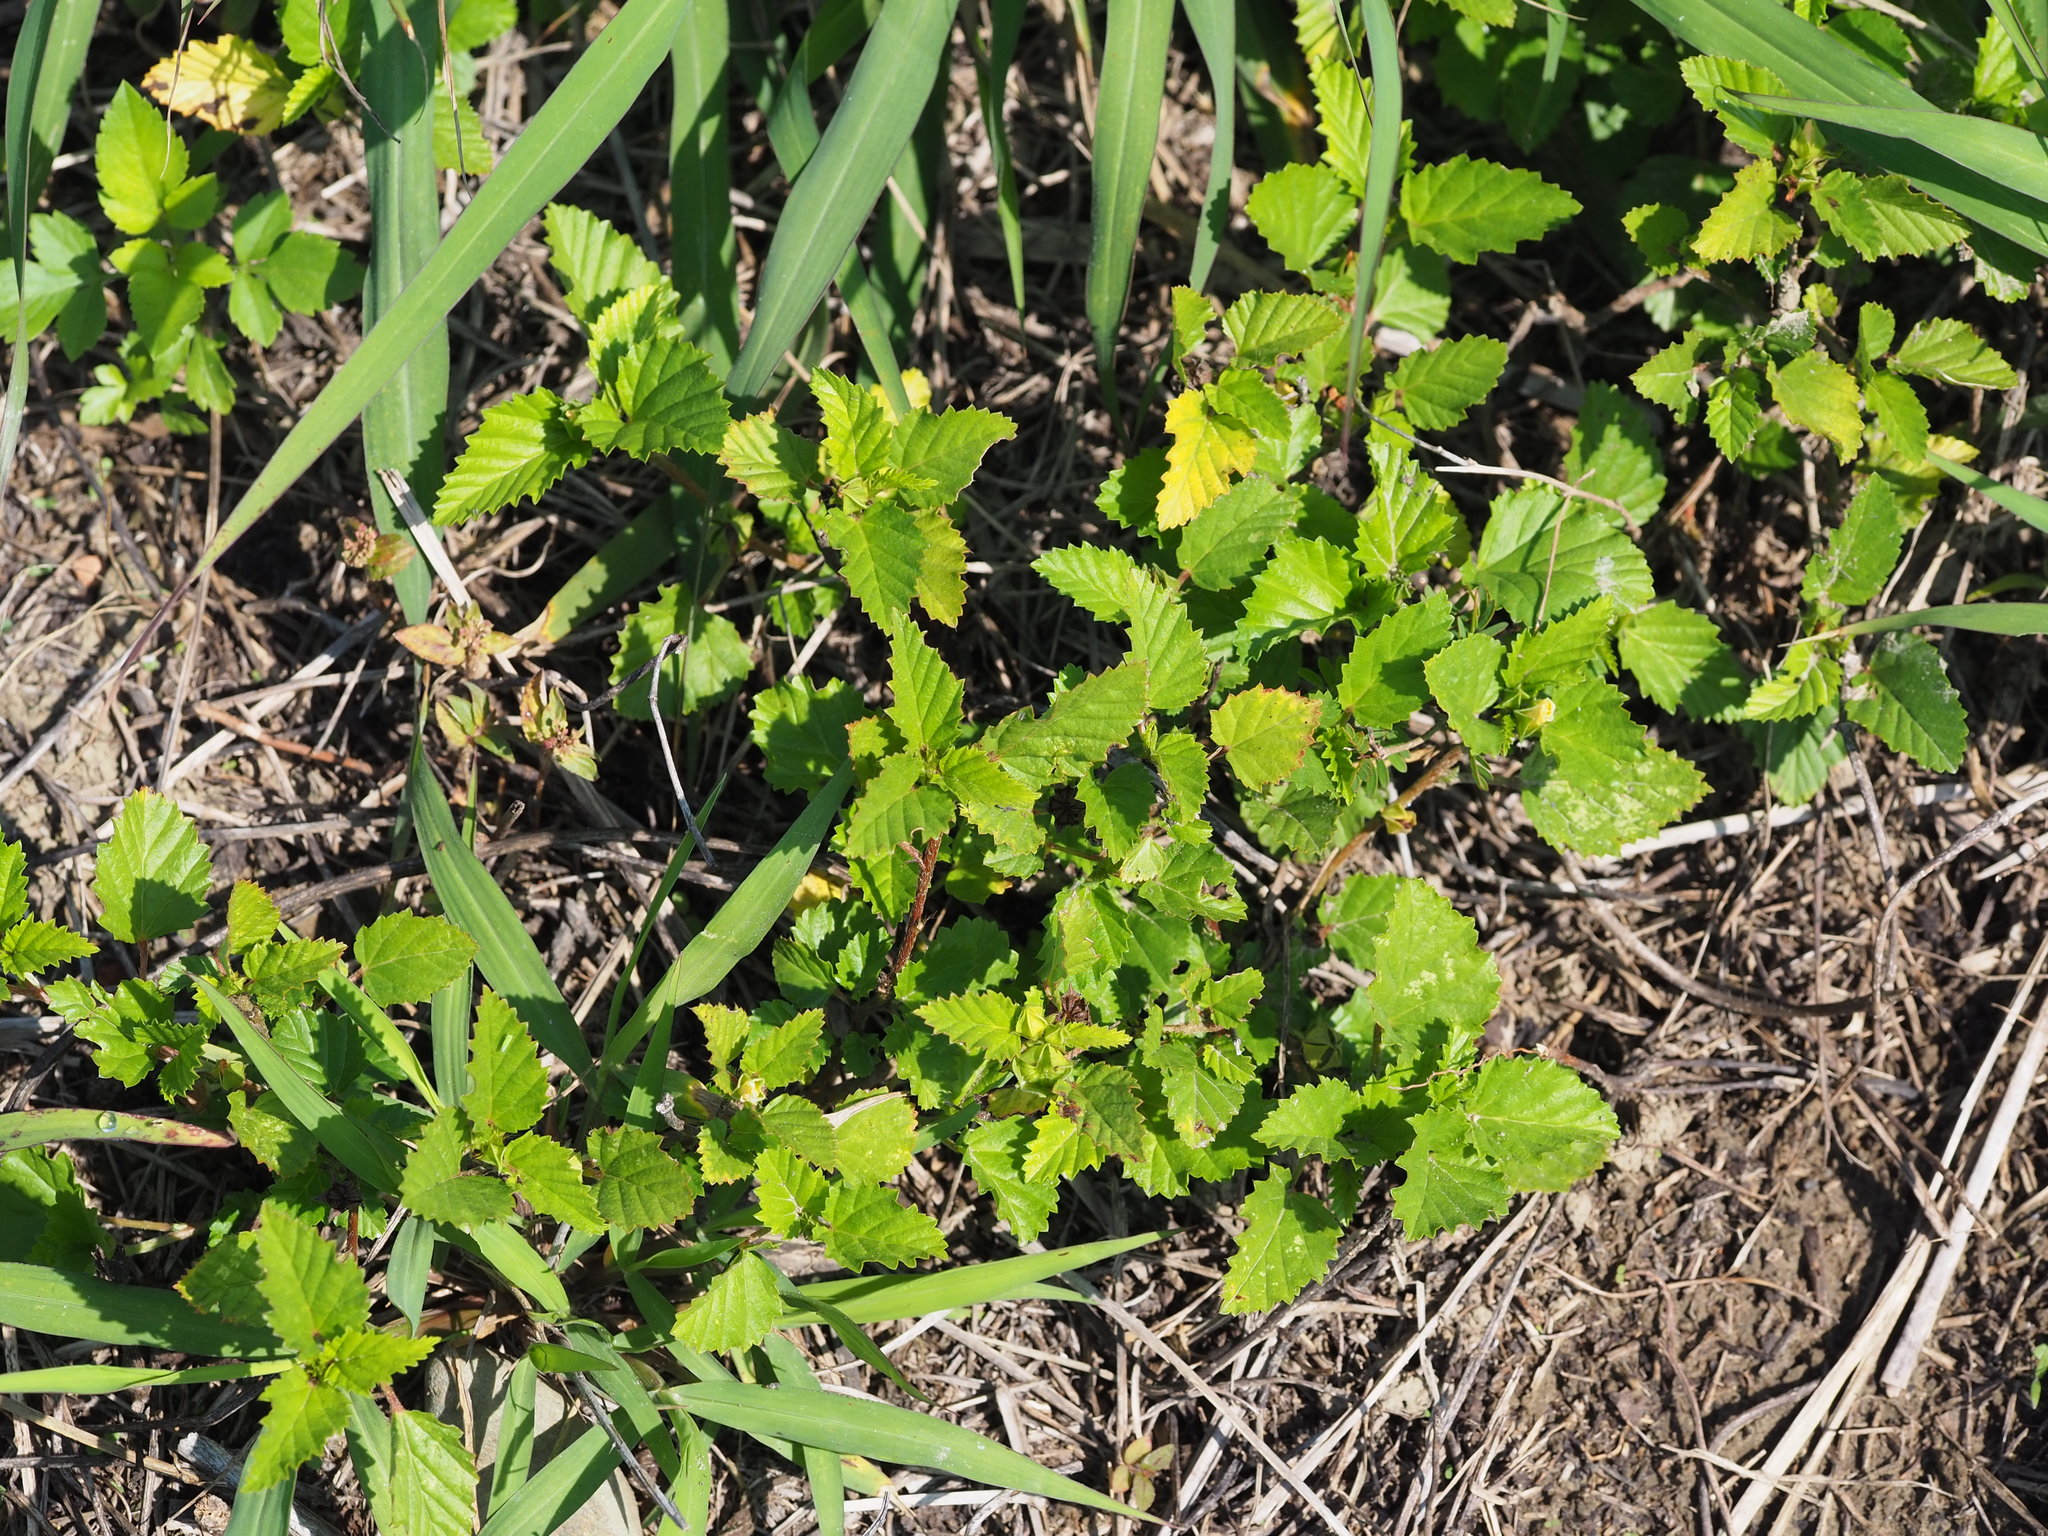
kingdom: Plantae
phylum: Tracheophyta
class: Magnoliopsida
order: Malvales
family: Malvaceae
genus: Malvastrum
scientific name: Malvastrum coromandelianum
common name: Threelobe false mallow
